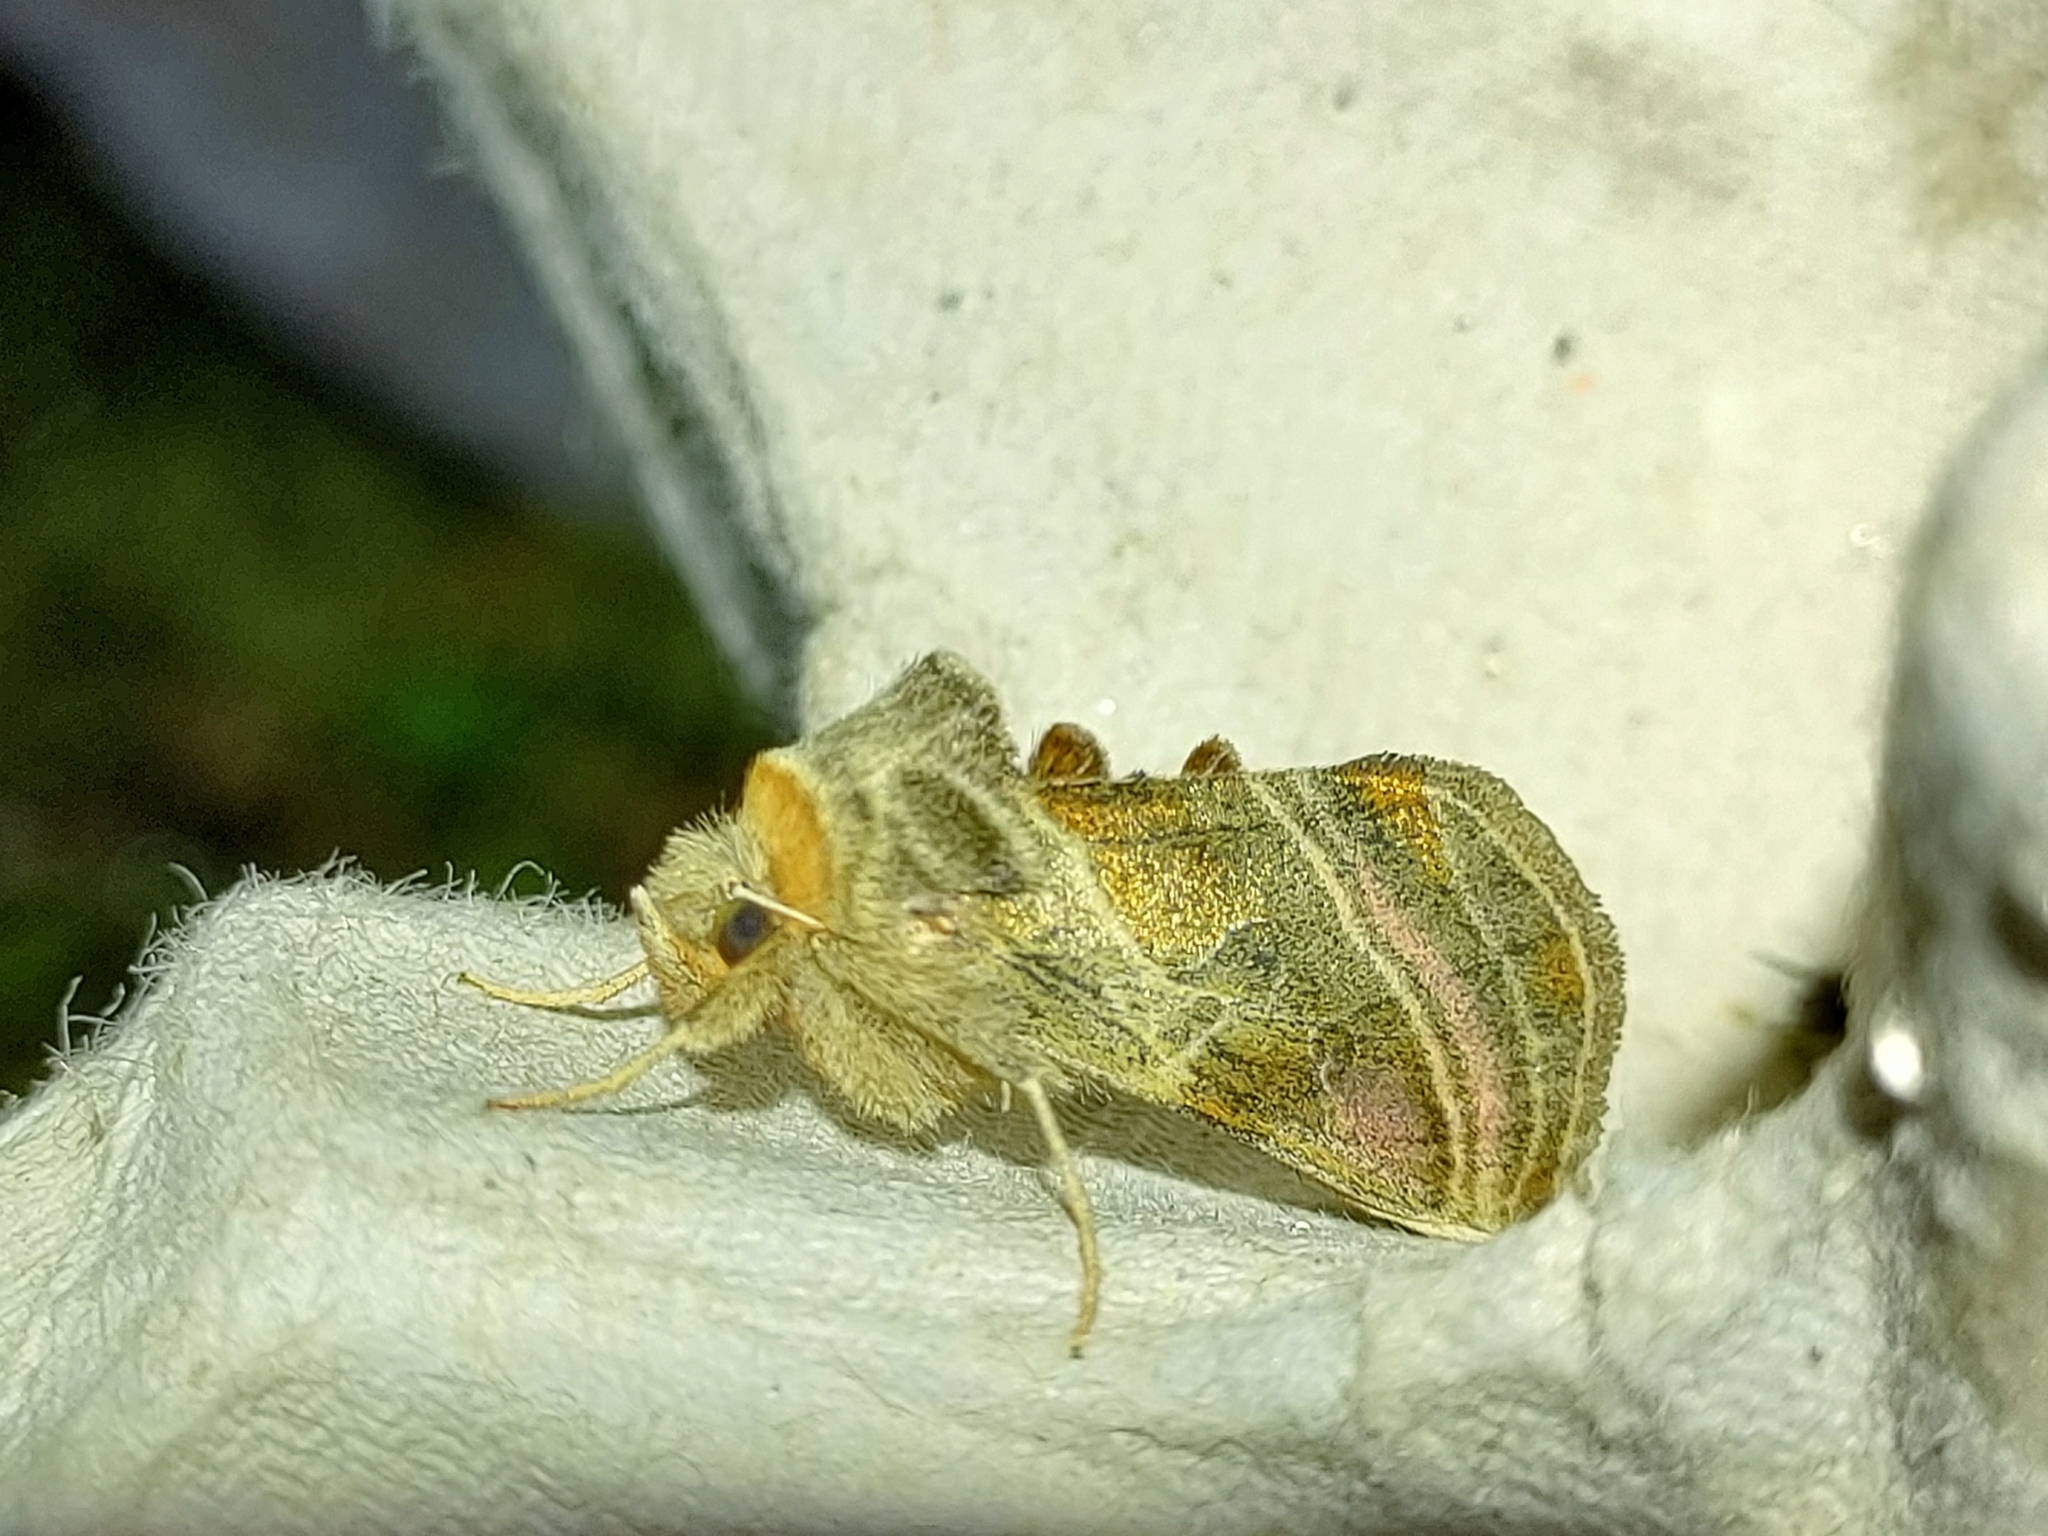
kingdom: Animalia
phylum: Arthropoda
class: Insecta
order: Lepidoptera
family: Noctuidae
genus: Euchalcia
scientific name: Euchalcia variabilis
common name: Purple-shaded gem
